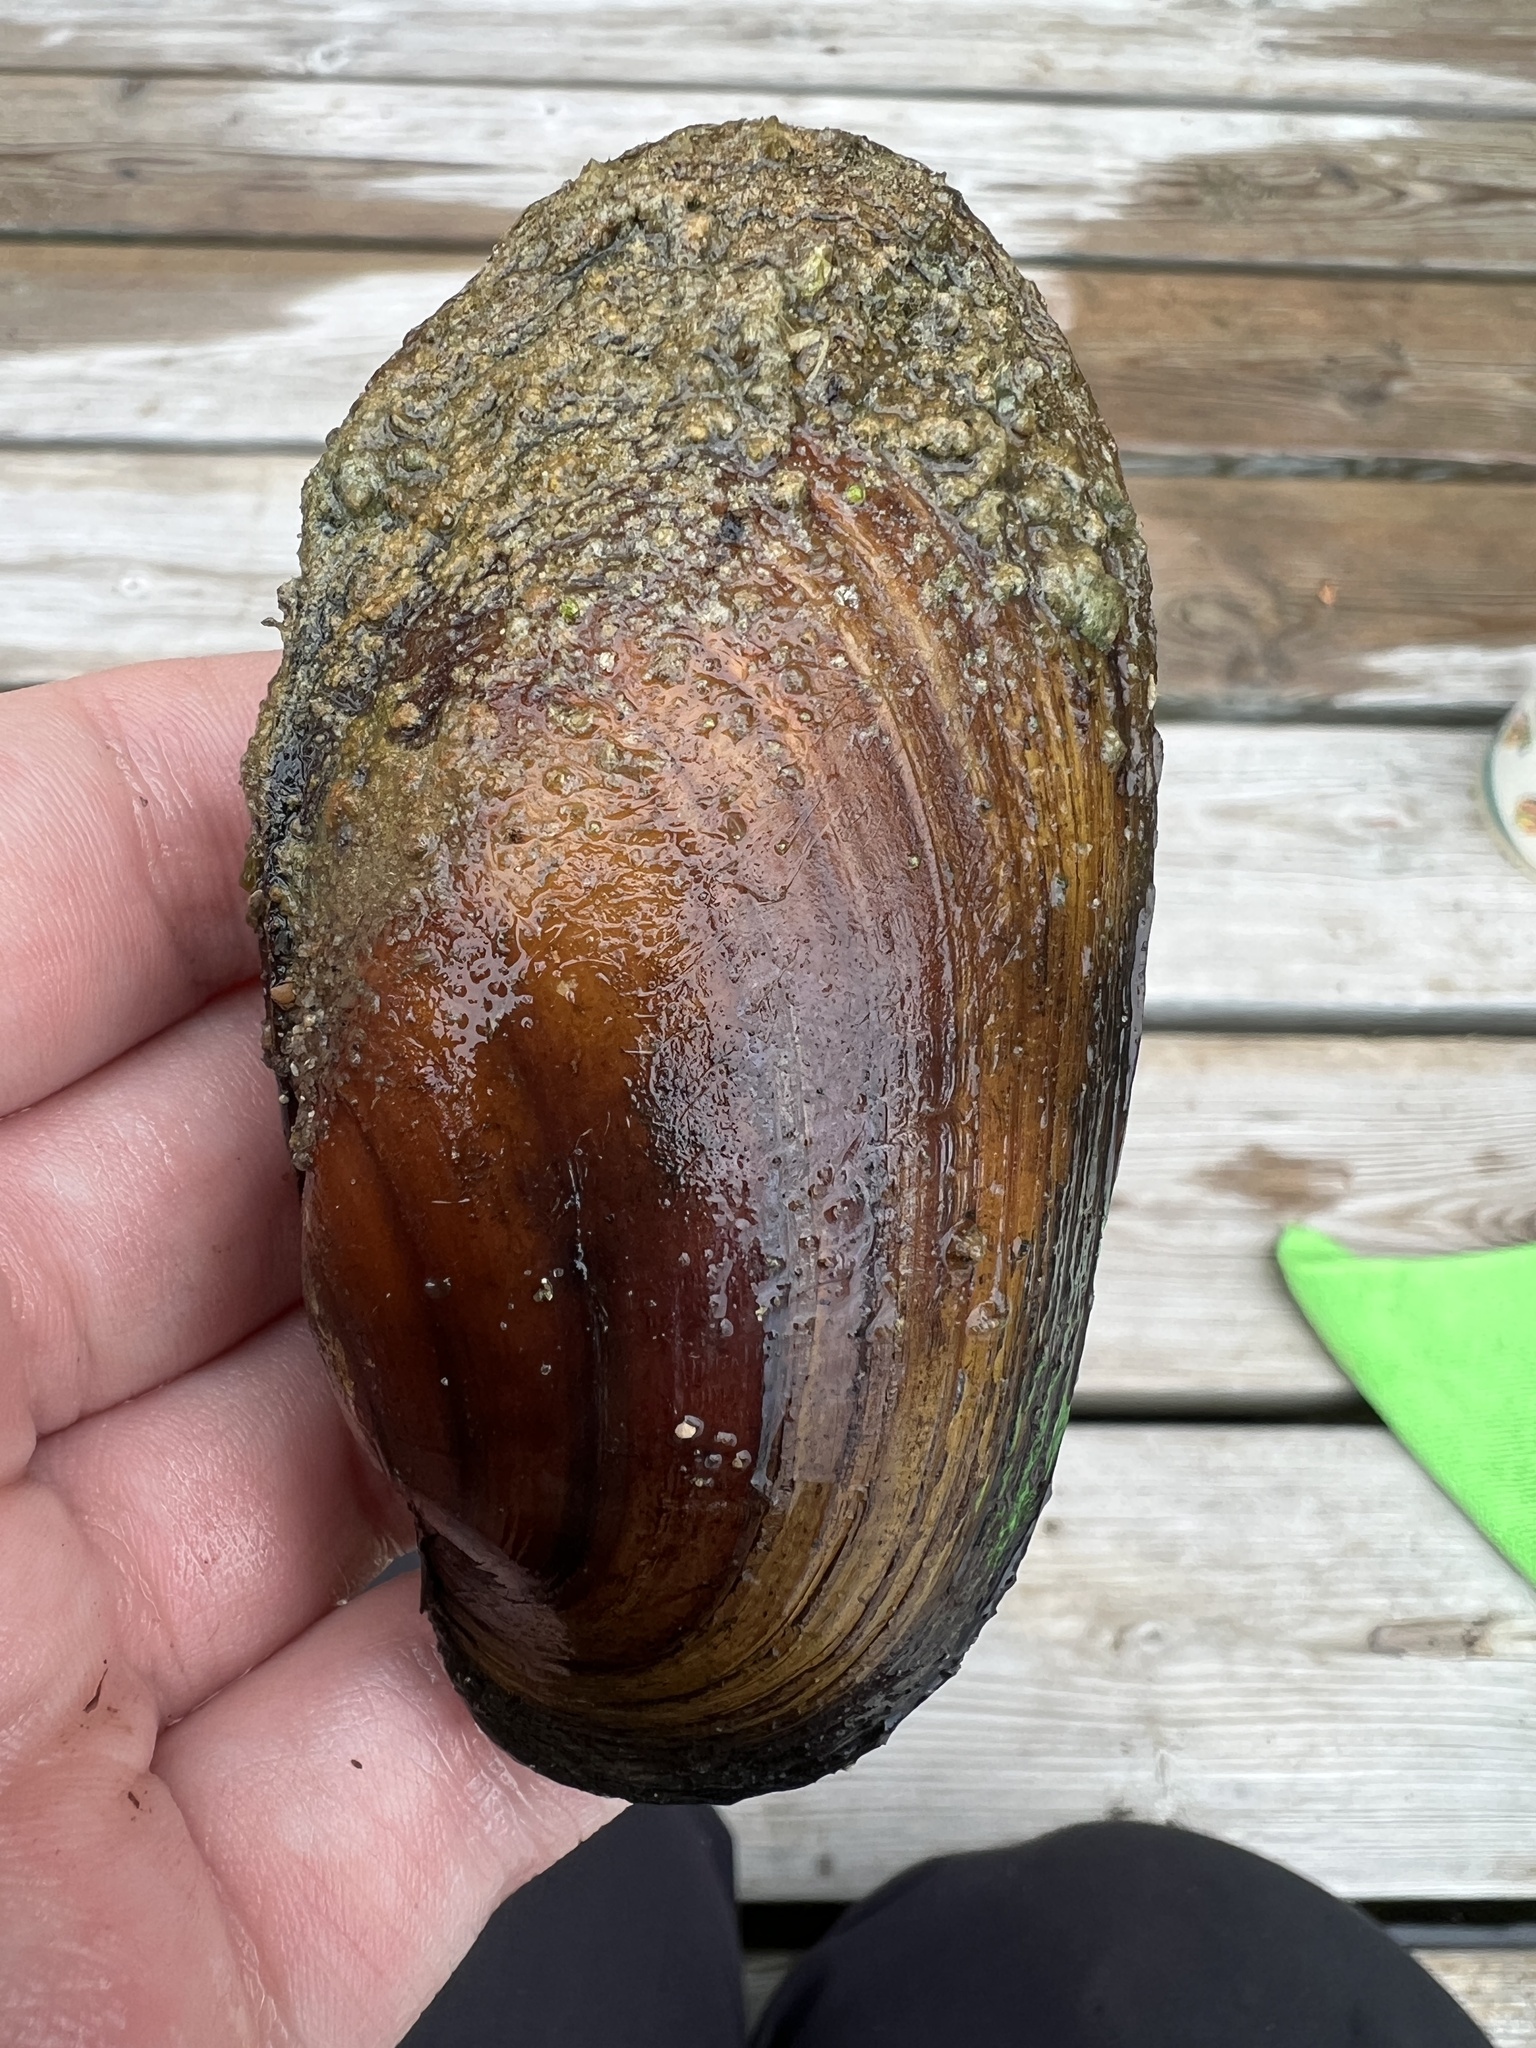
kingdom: Animalia
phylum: Mollusca
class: Bivalvia
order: Unionida
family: Unionidae
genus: Lampsilis
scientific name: Lampsilis siliquoidea
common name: Fatmucket
